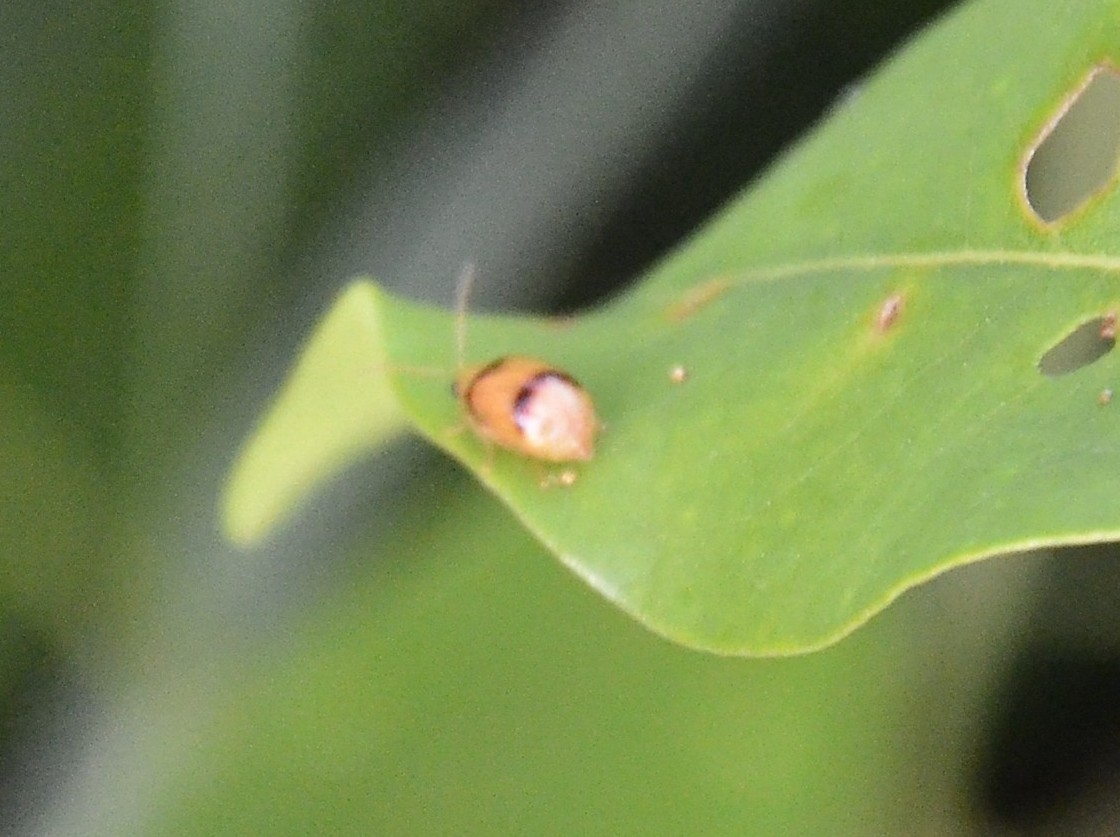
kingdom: Animalia
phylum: Arthropoda
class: Insecta
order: Coleoptera
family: Chrysomelidae
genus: Monolepta
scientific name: Monolepta
